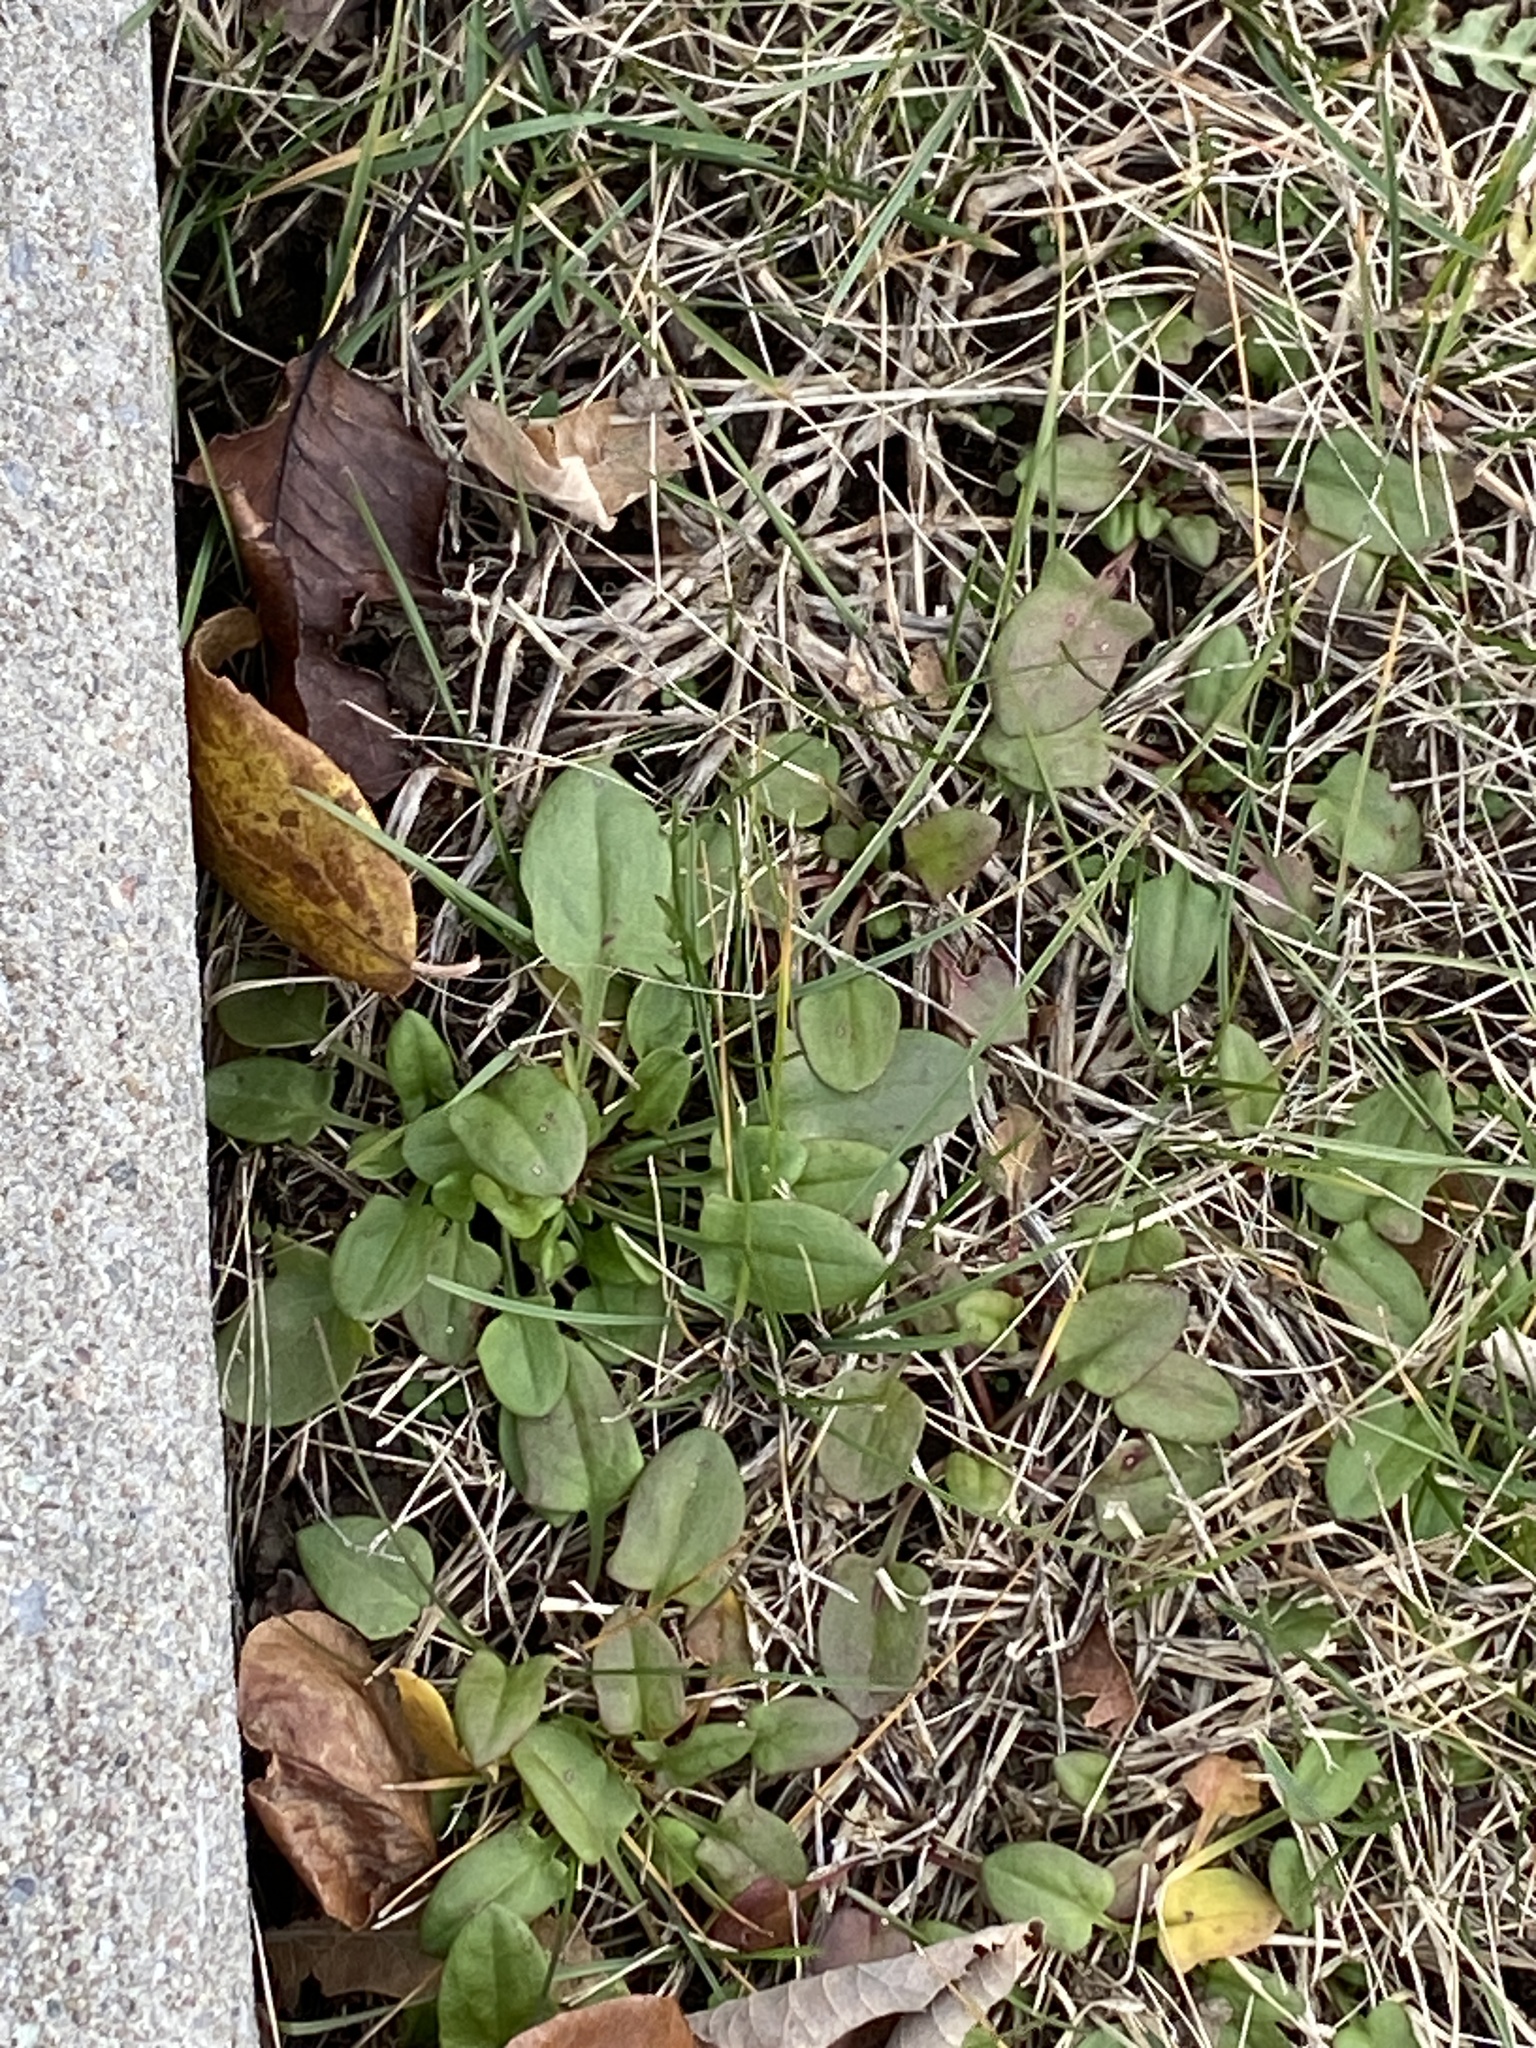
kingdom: Plantae
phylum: Tracheophyta
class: Magnoliopsida
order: Caryophyllales
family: Polygonaceae
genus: Rumex
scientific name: Rumex acetosella
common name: Common sheep sorrel
